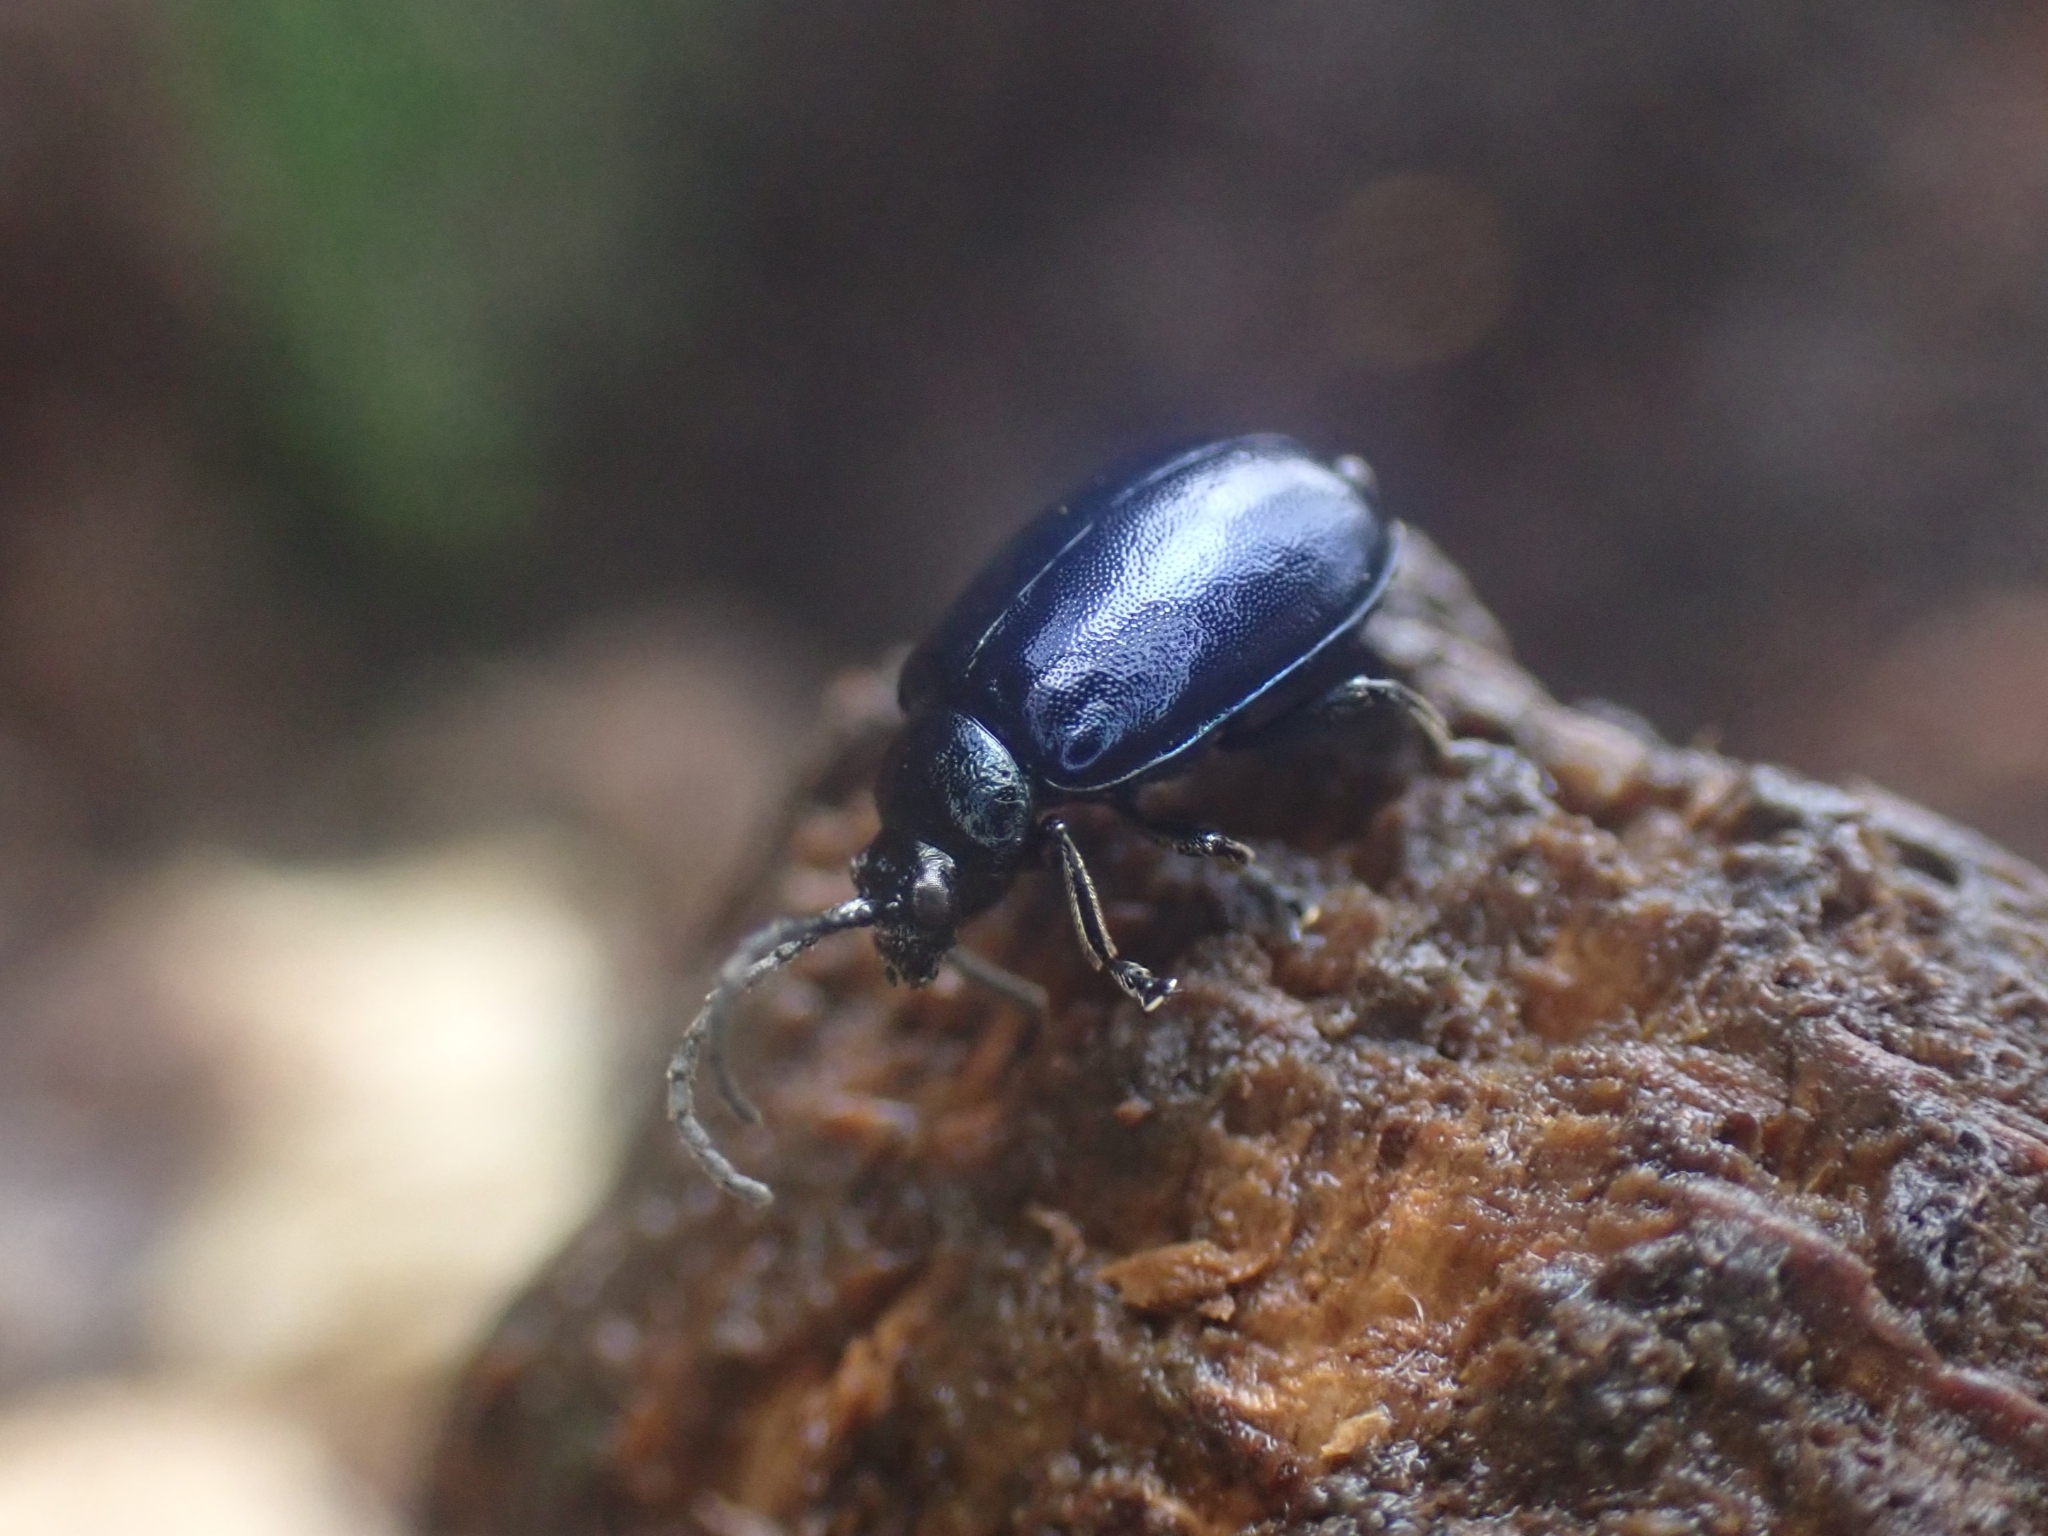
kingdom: Animalia
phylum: Arthropoda
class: Insecta
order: Coleoptera
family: Chrysomelidae
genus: Agelastica
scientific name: Agelastica alni
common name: Alder leaf beetle
